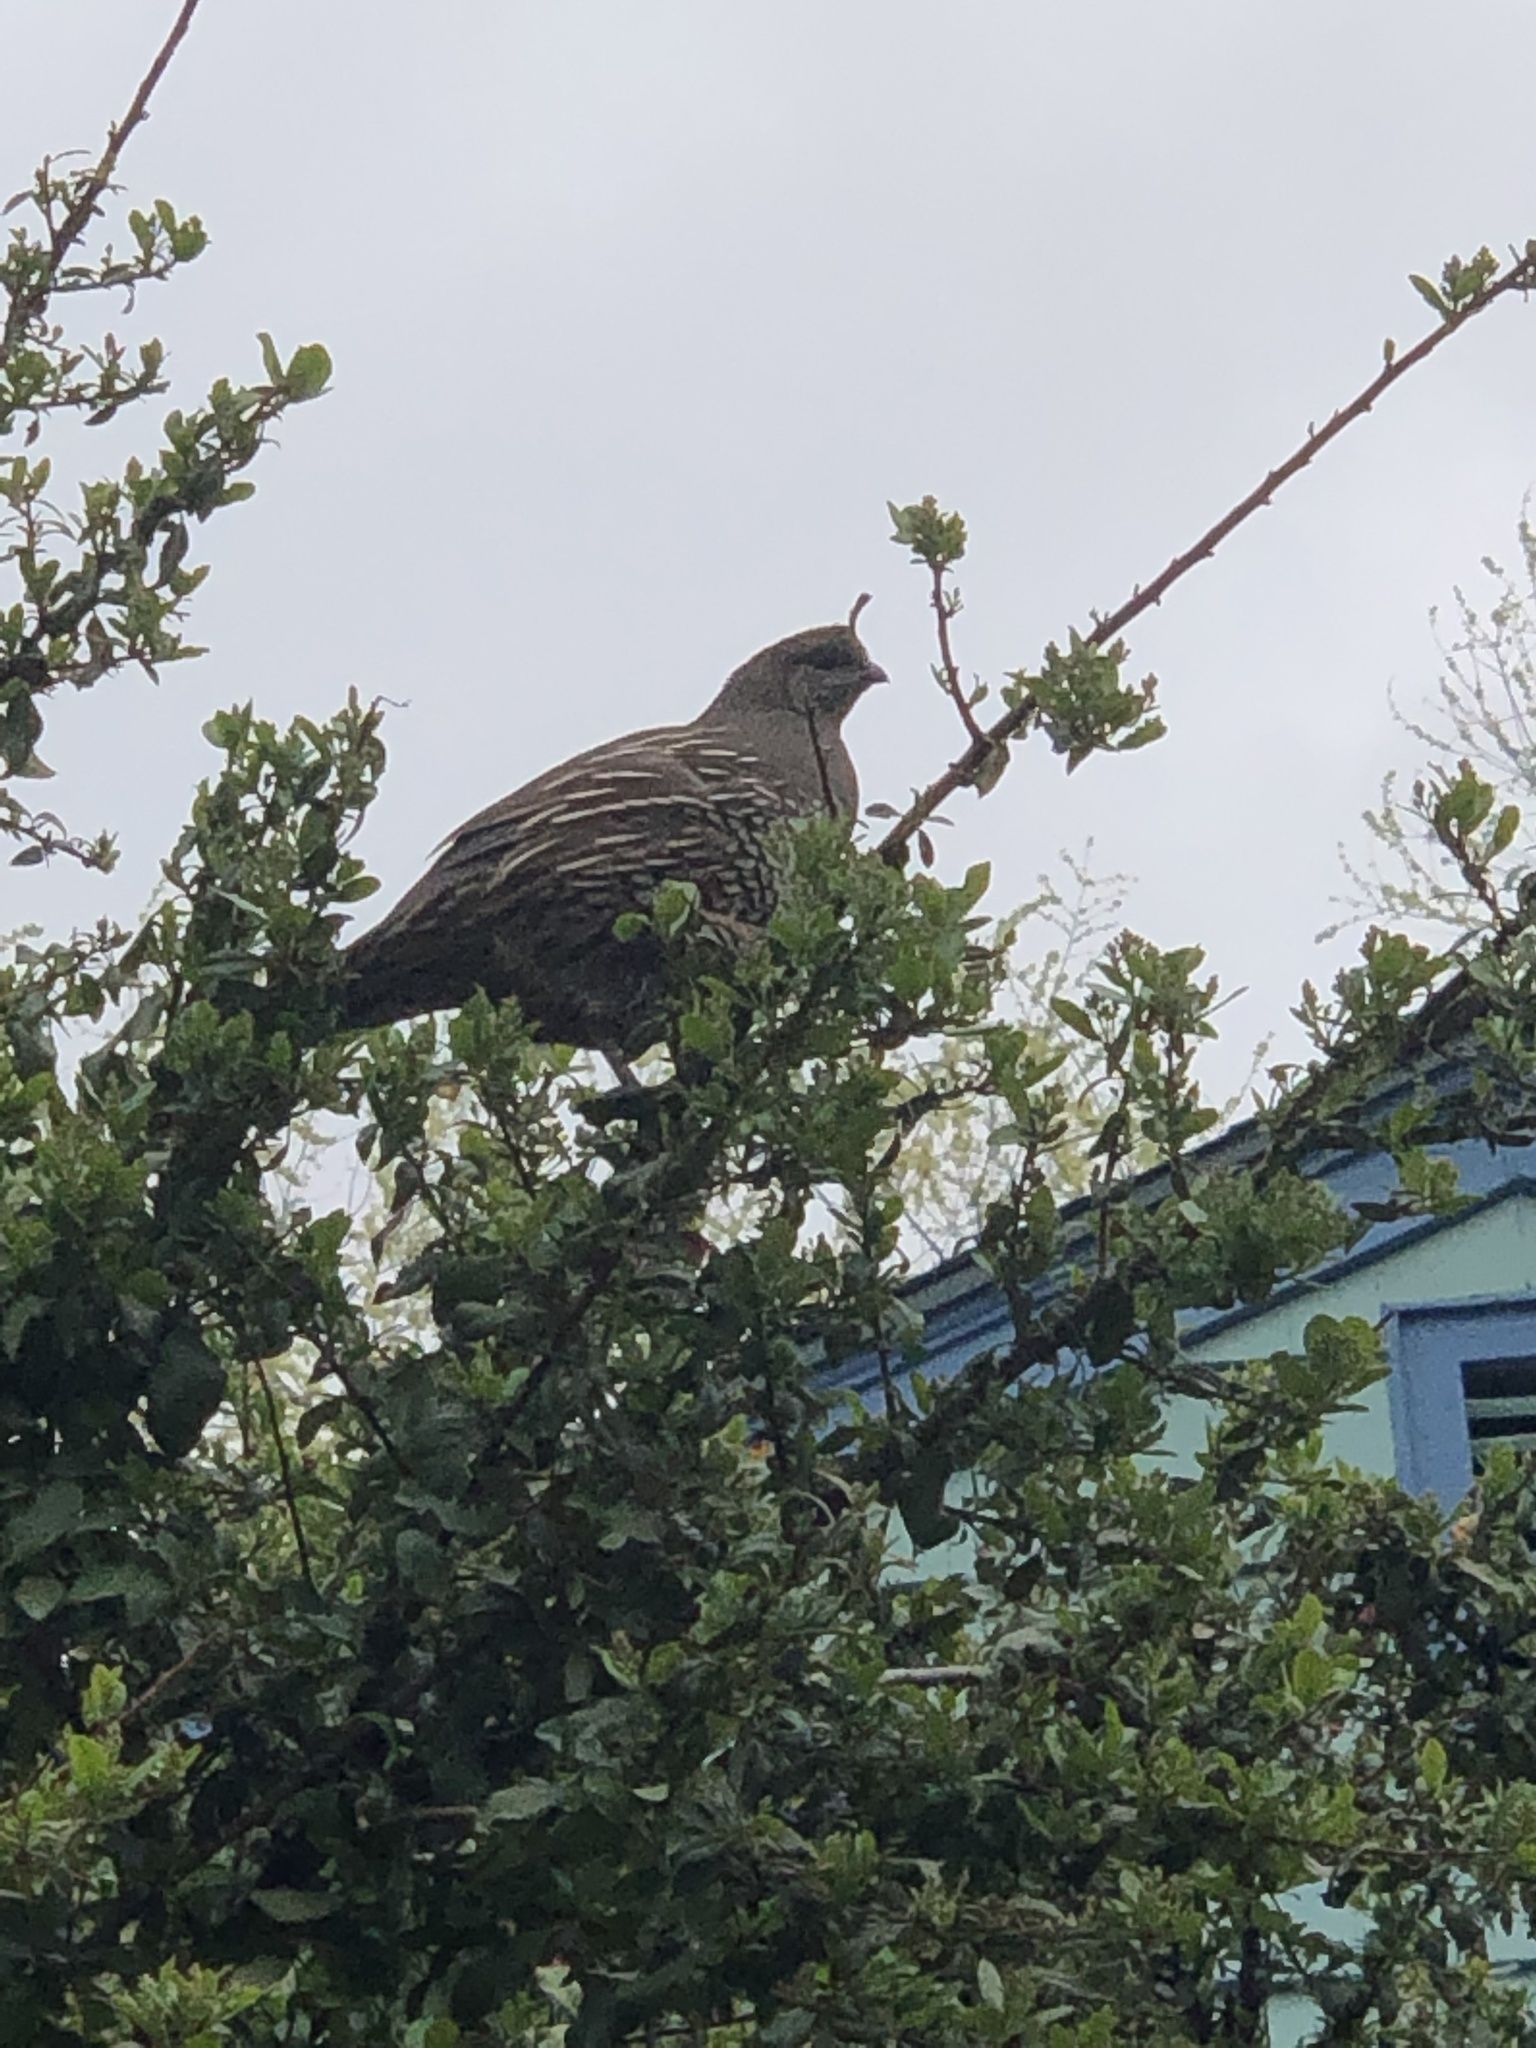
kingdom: Animalia
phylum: Chordata
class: Aves
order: Galliformes
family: Odontophoridae
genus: Callipepla
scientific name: Callipepla californica
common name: California quail
